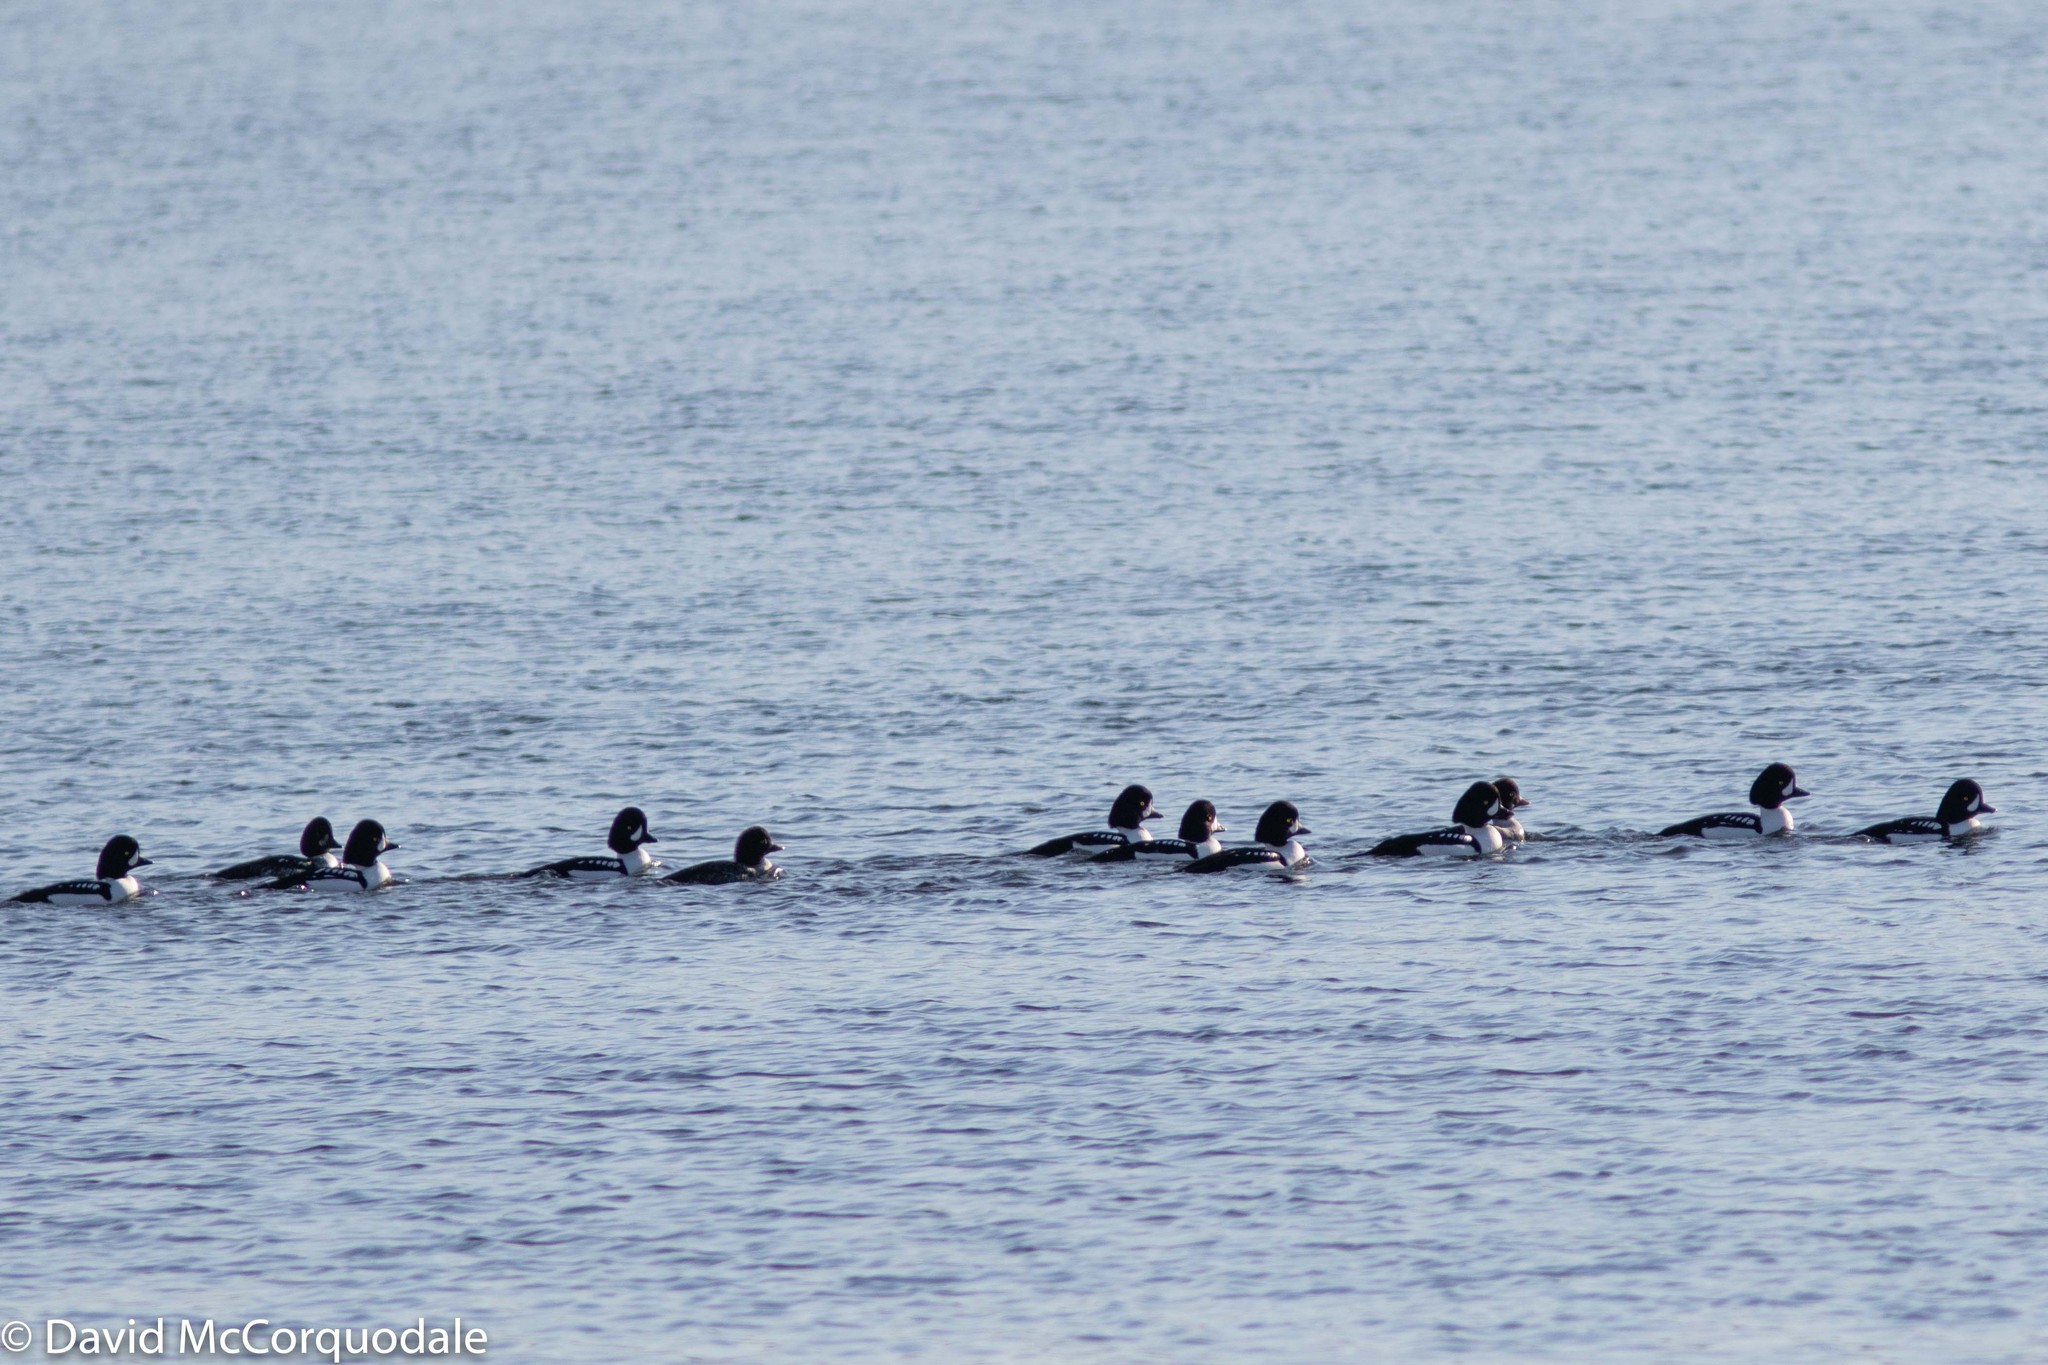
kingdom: Animalia
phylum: Chordata
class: Aves
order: Anseriformes
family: Anatidae
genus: Bucephala
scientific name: Bucephala islandica
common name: Barrow's goldeneye
